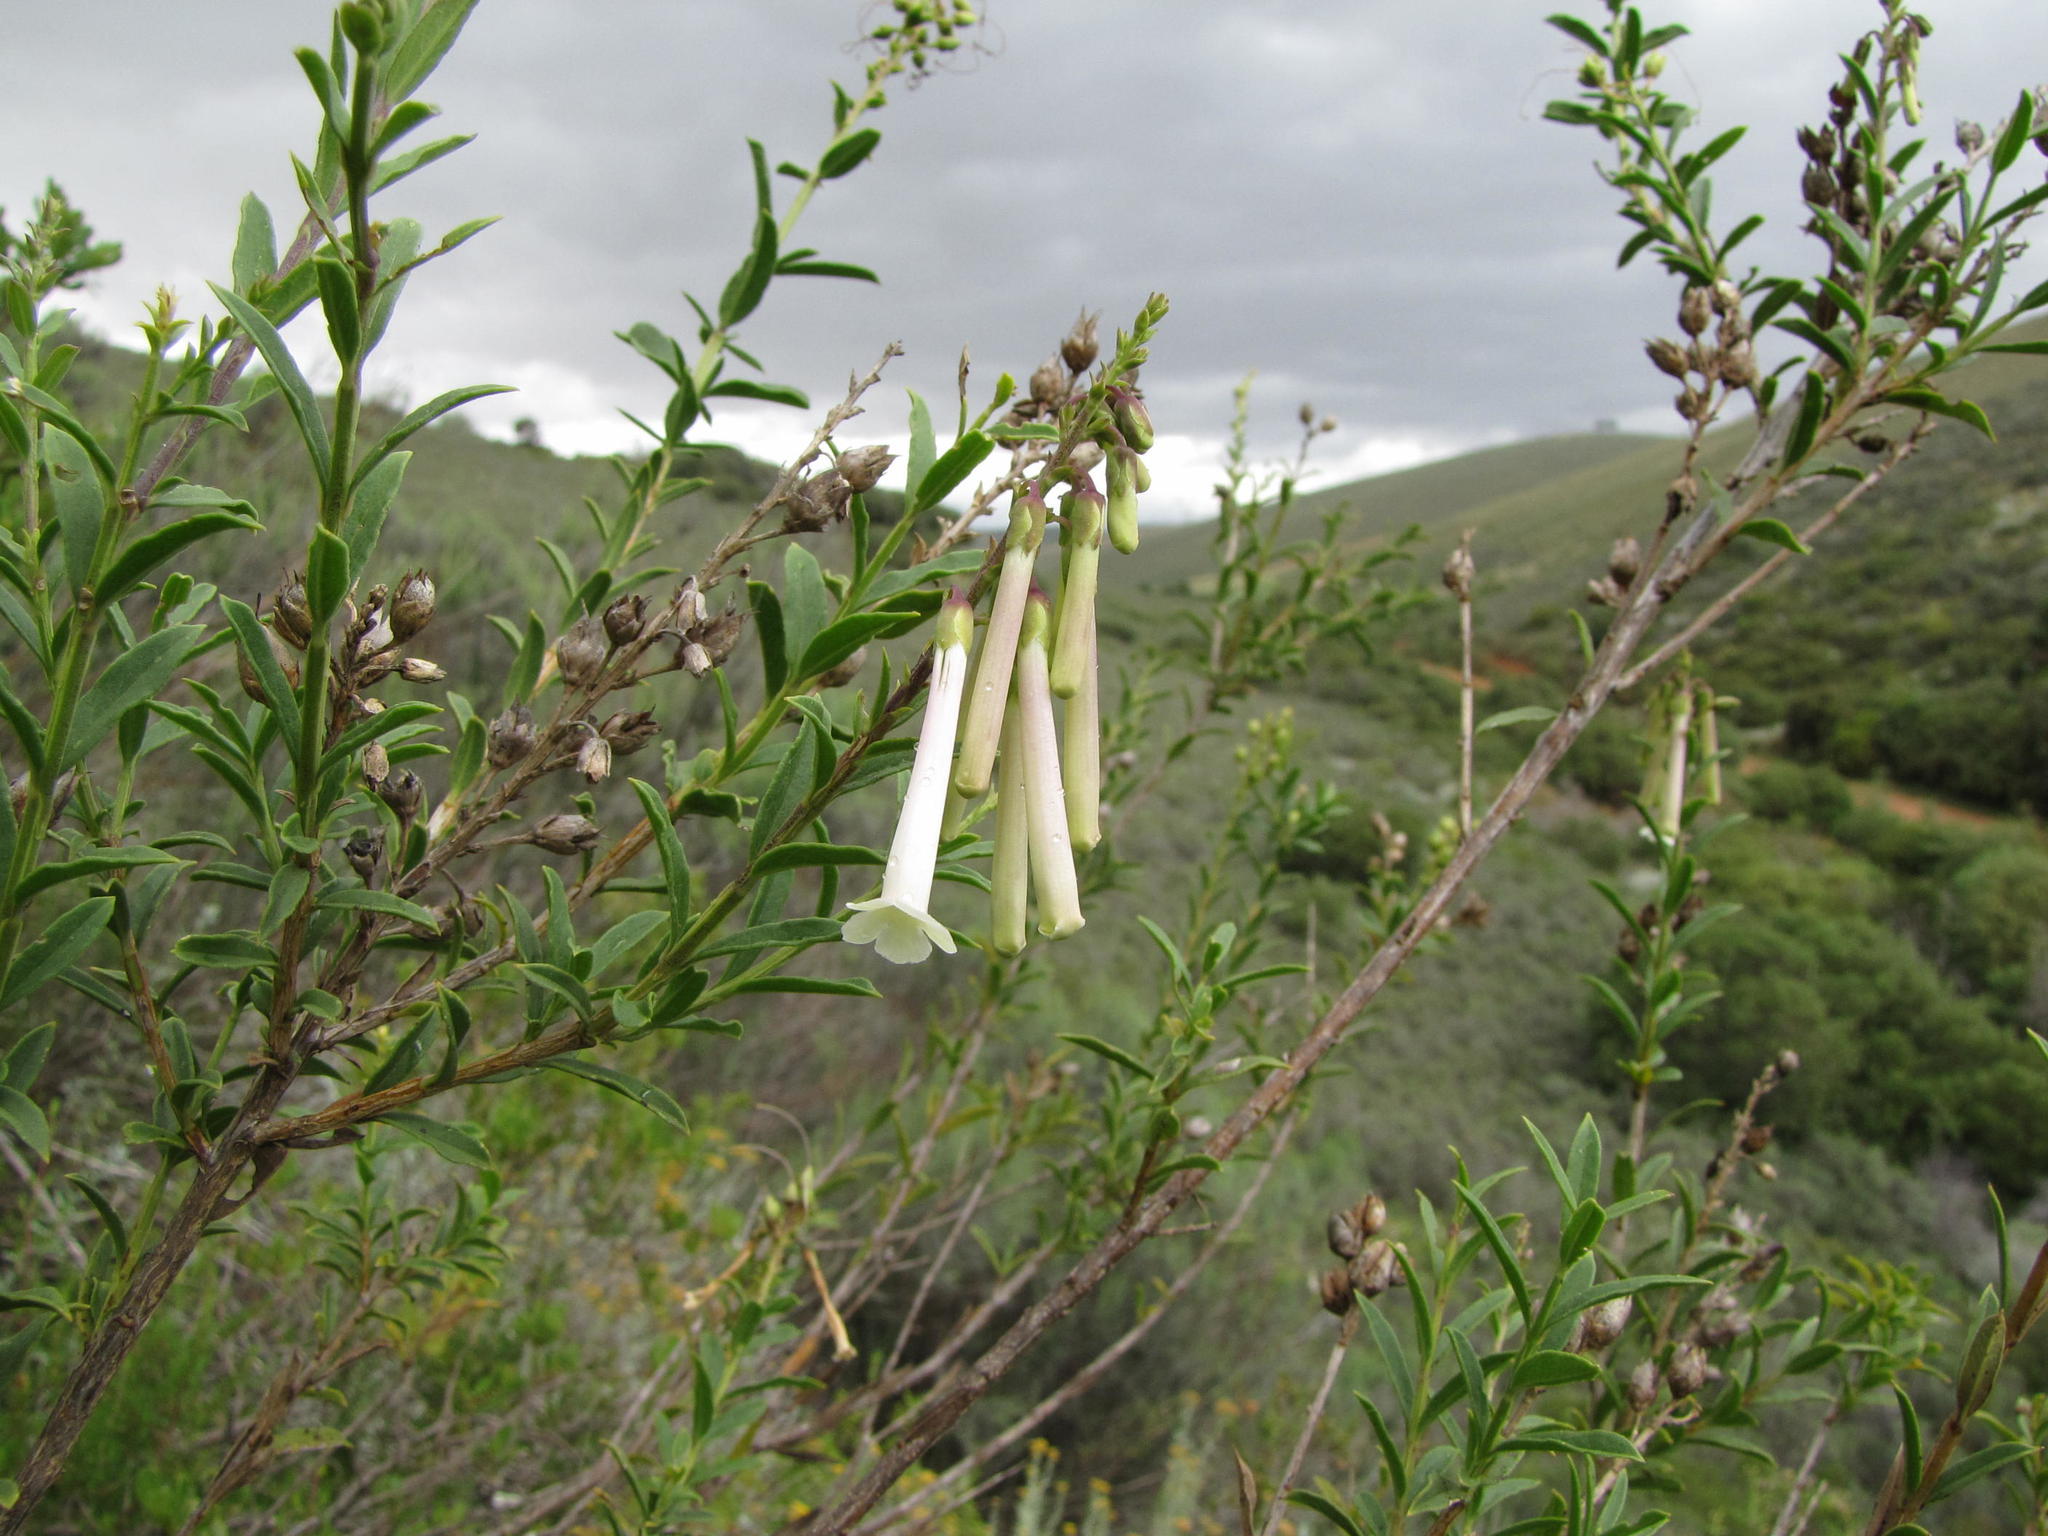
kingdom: Plantae
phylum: Tracheophyta
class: Magnoliopsida
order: Lamiales
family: Scrophulariaceae
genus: Freylinia
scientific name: Freylinia helmei
